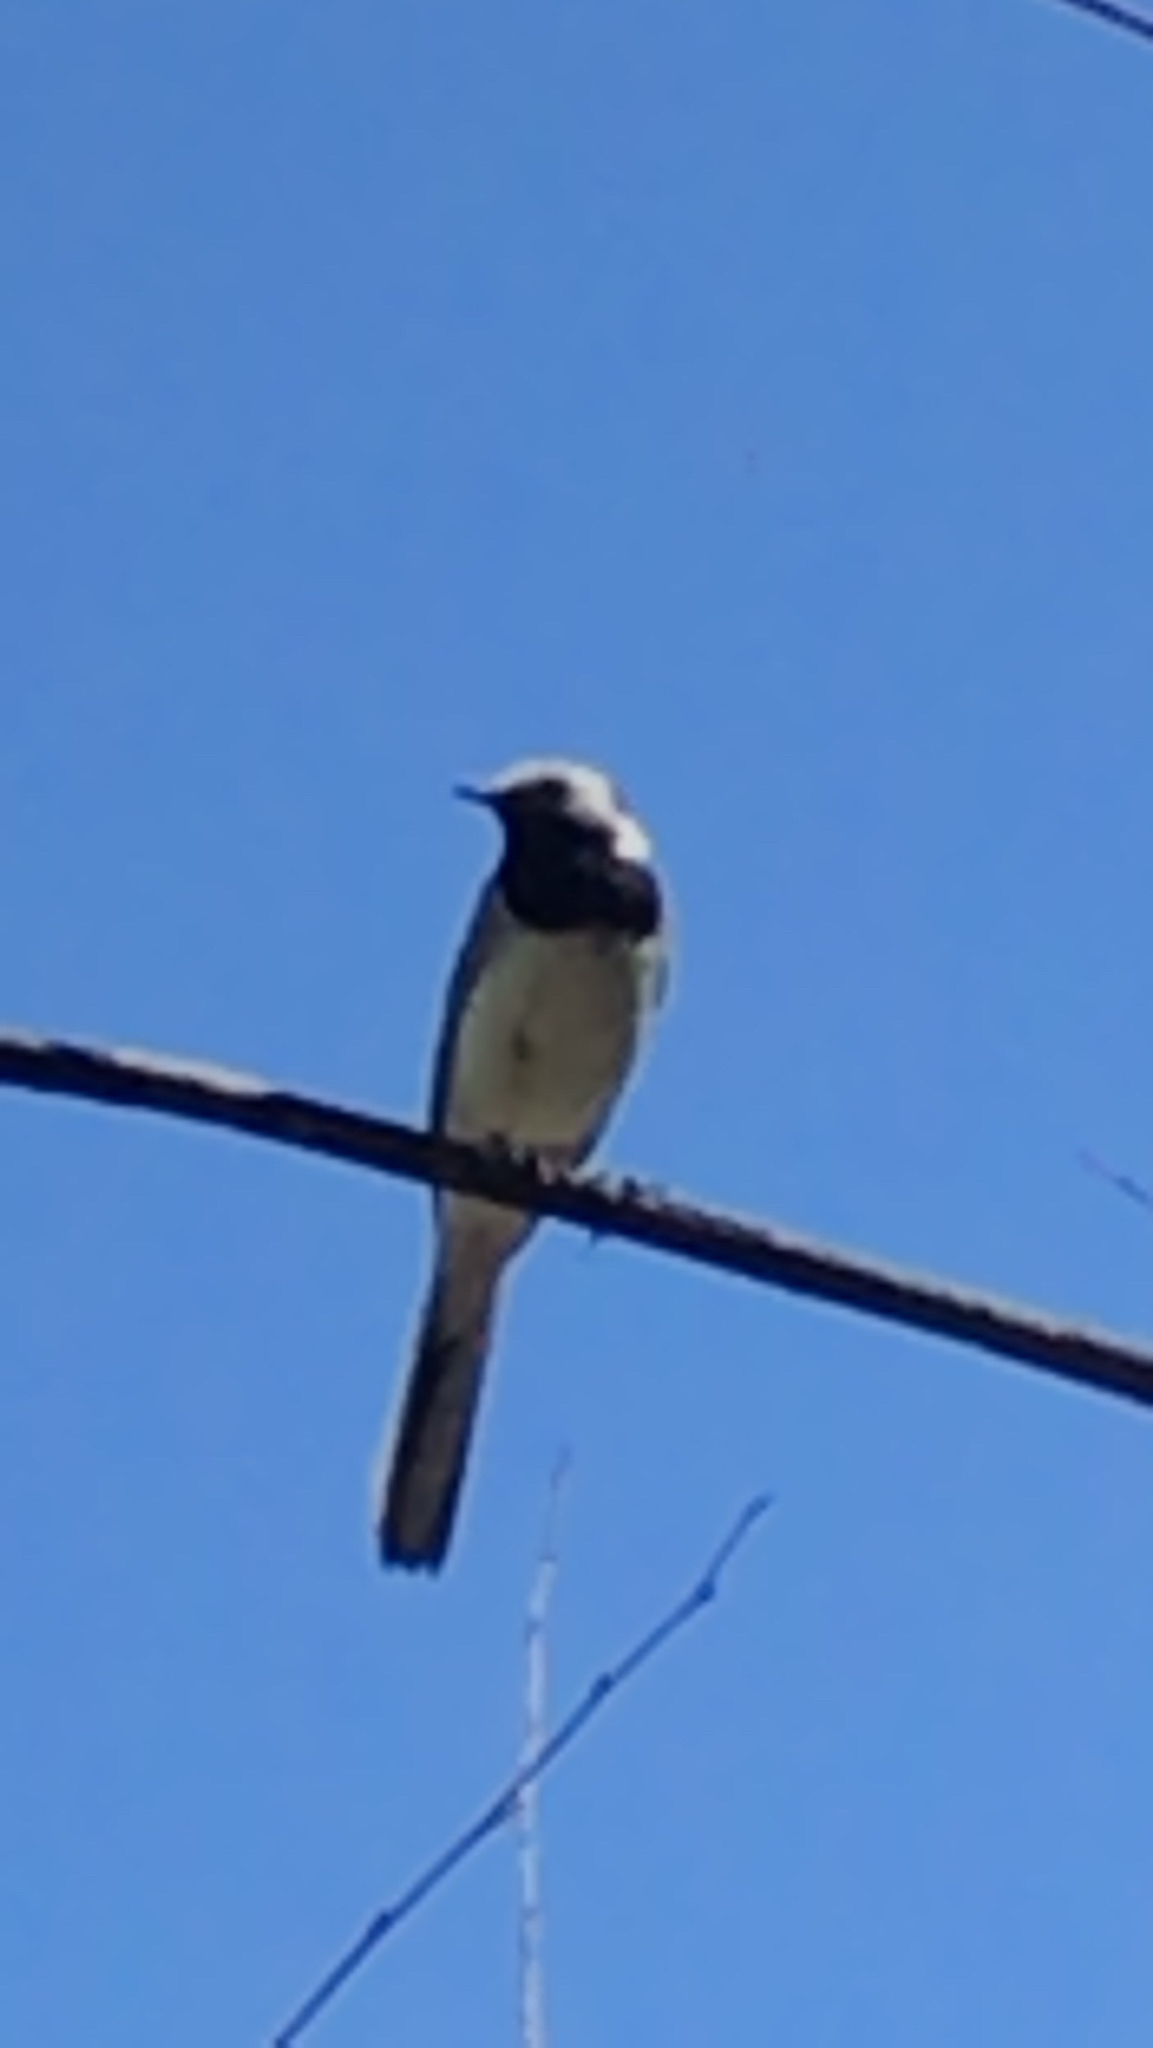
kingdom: Animalia
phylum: Chordata
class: Aves
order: Passeriformes
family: Motacillidae
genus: Motacilla
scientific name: Motacilla alba
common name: White wagtail
